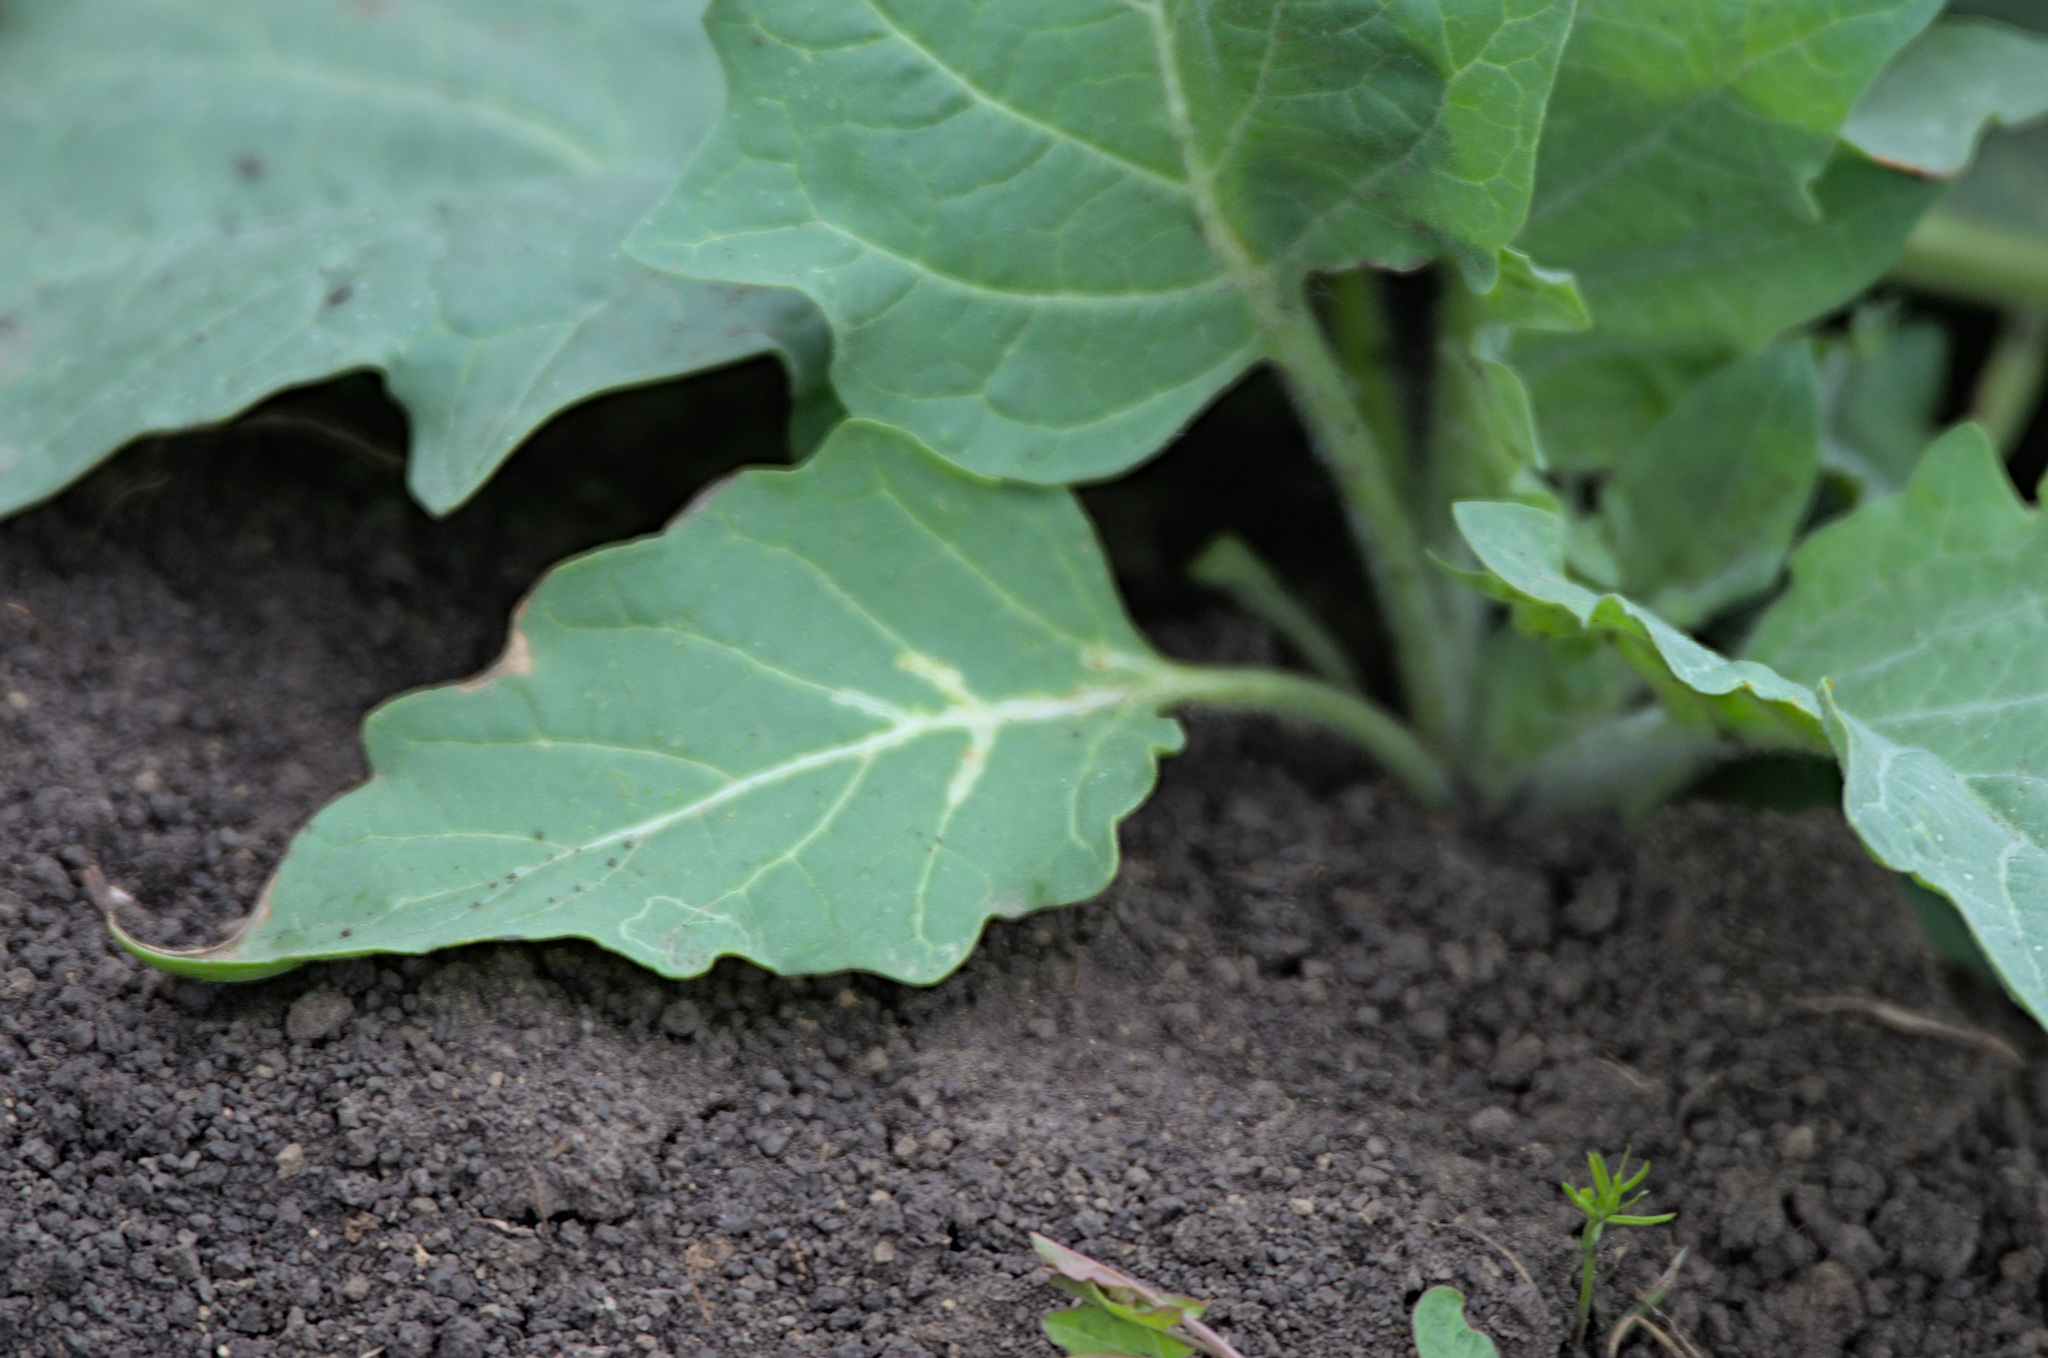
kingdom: Plantae
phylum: Tracheophyta
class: Magnoliopsida
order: Solanales
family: Solanaceae
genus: Hyoscyamus
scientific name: Hyoscyamus niger
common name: Henbane
